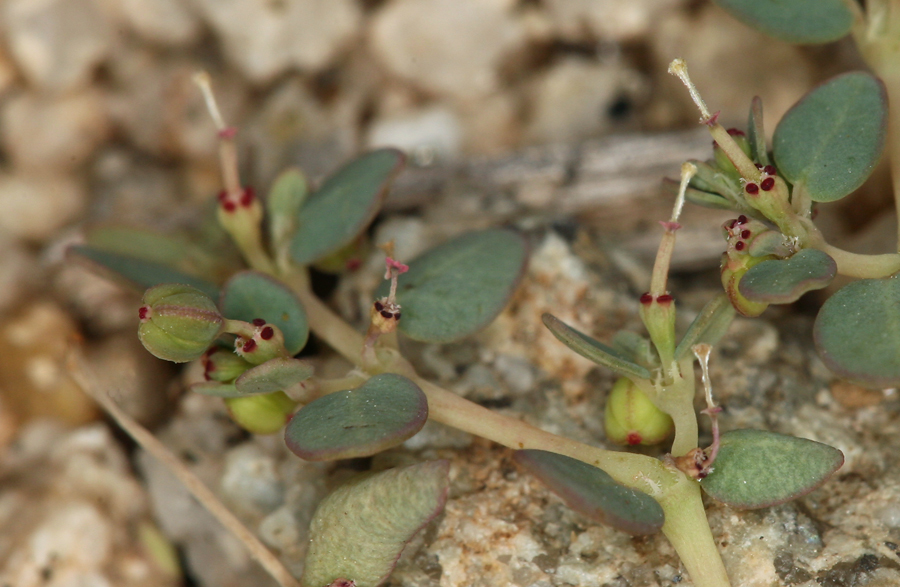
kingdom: Plantae
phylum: Tracheophyta
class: Magnoliopsida
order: Malpighiales
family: Euphorbiaceae
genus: Euphorbia
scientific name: Euphorbia micromera
